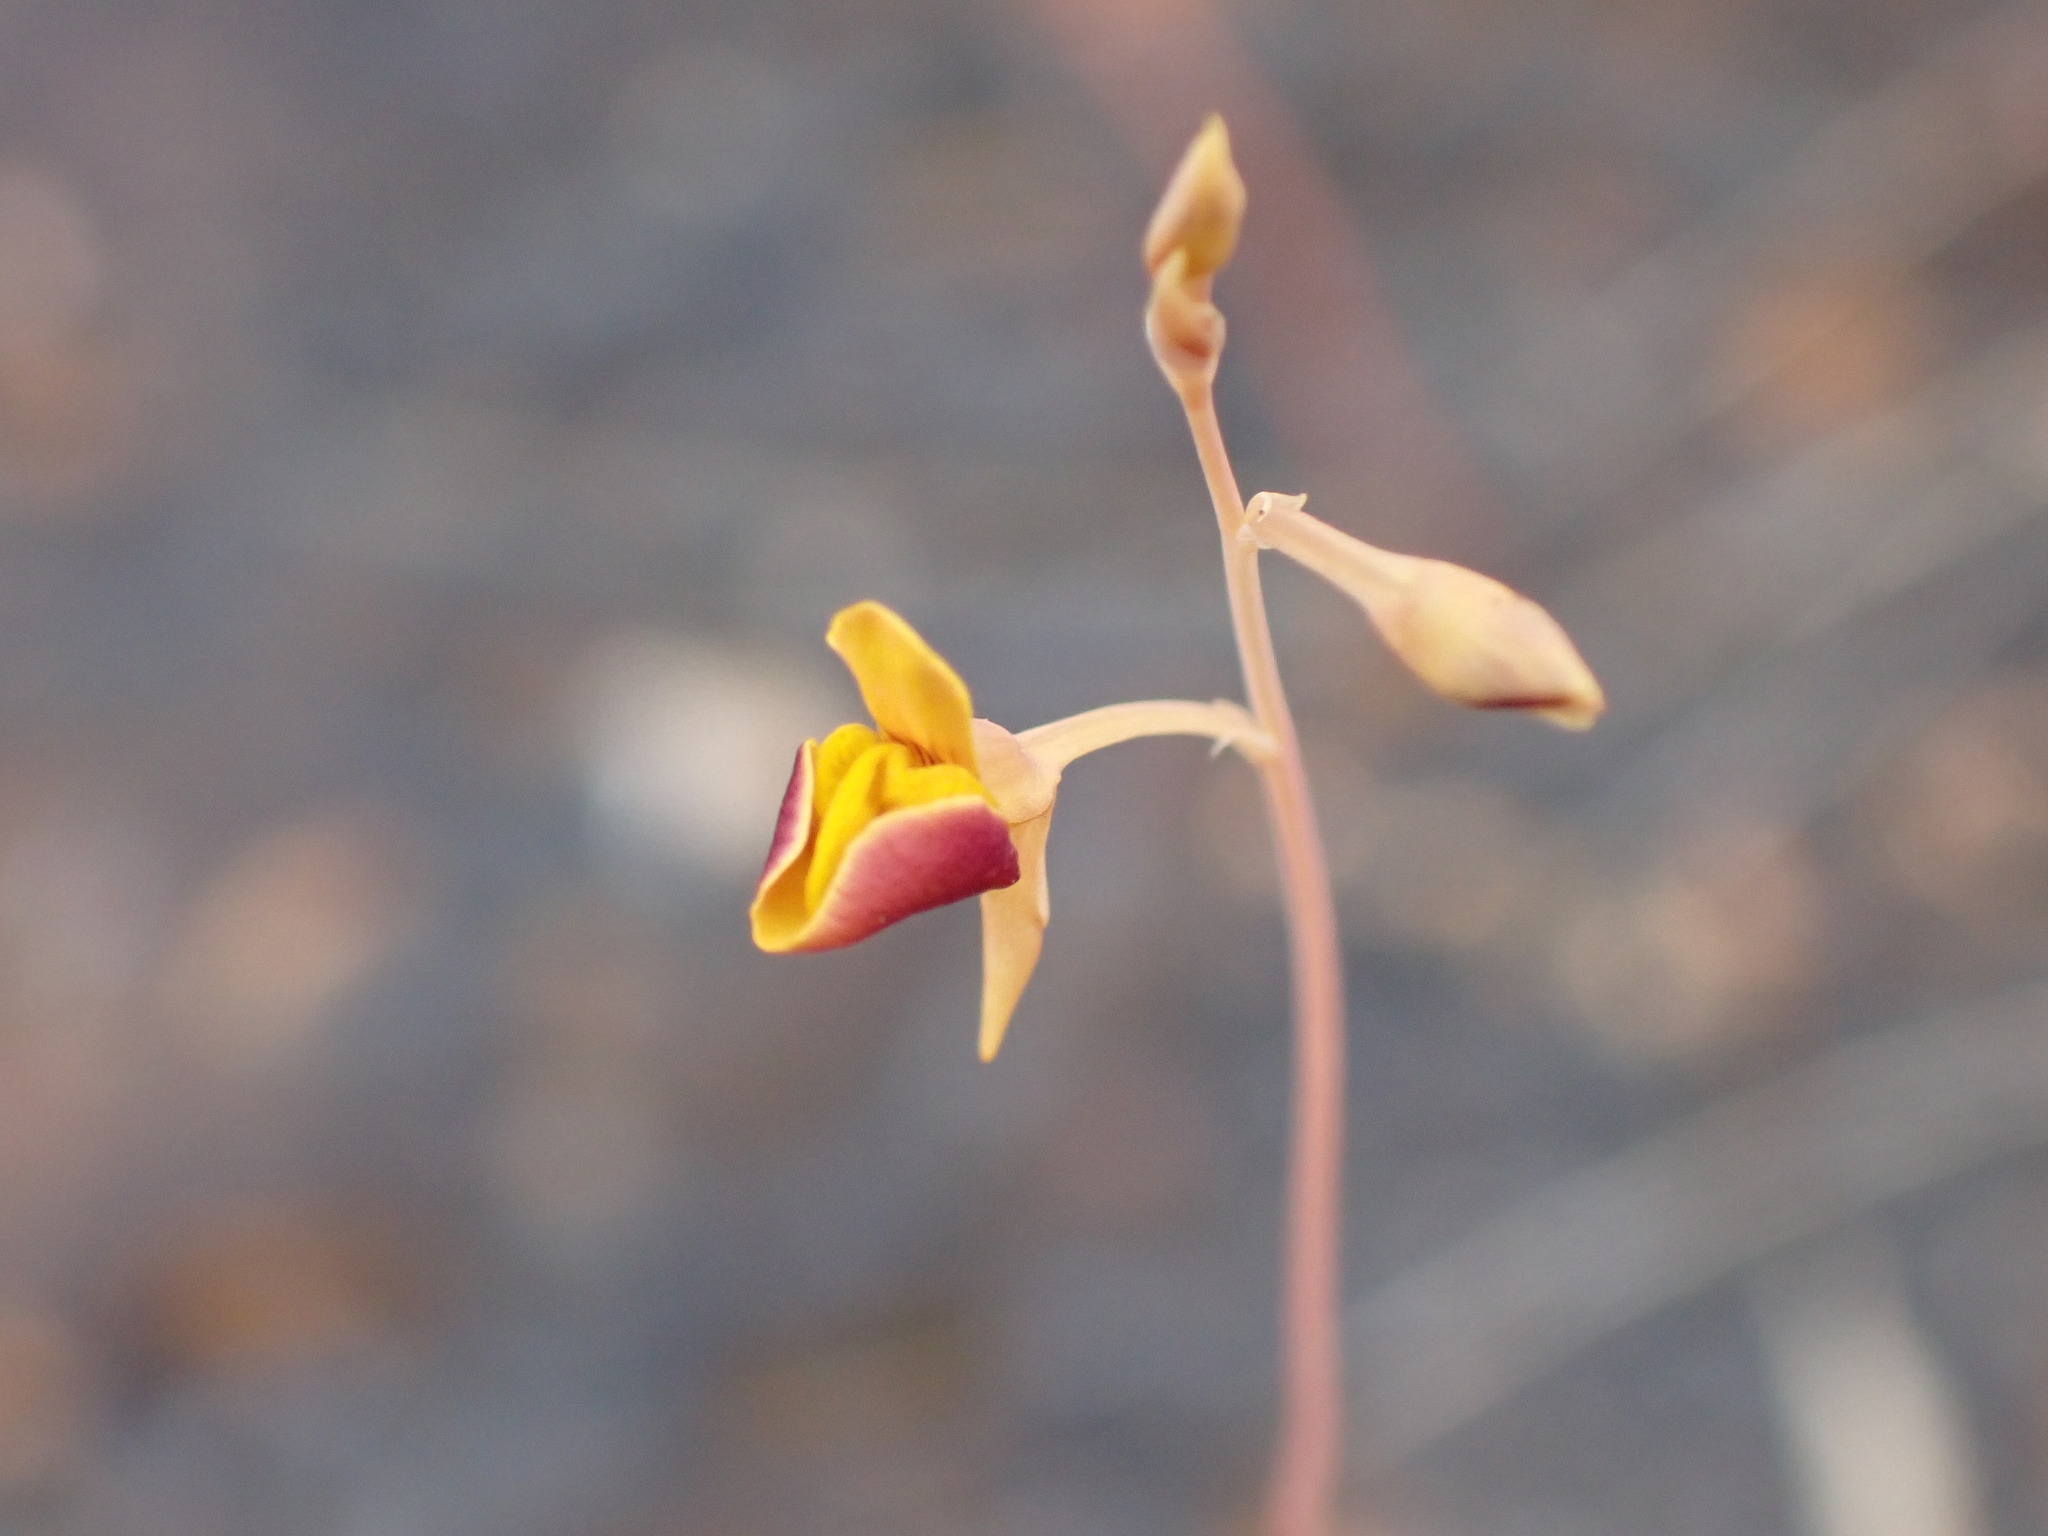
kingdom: Plantae
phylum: Tracheophyta
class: Magnoliopsida
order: Lamiales
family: Lentibulariaceae
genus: Utricularia
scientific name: Utricularia odorata
